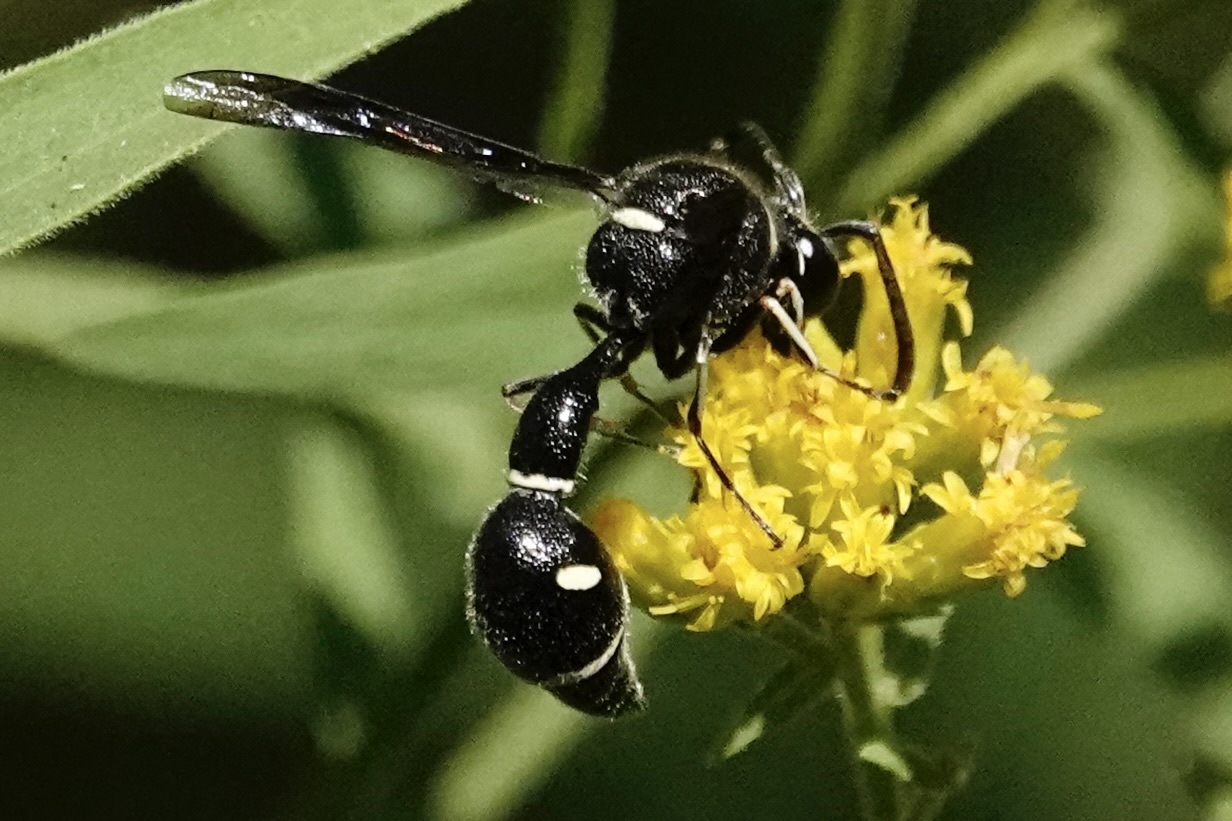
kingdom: Animalia
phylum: Arthropoda
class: Insecta
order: Hymenoptera
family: Vespidae
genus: Eumenes
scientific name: Eumenes fraternus
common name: Fraternal potter wasp
